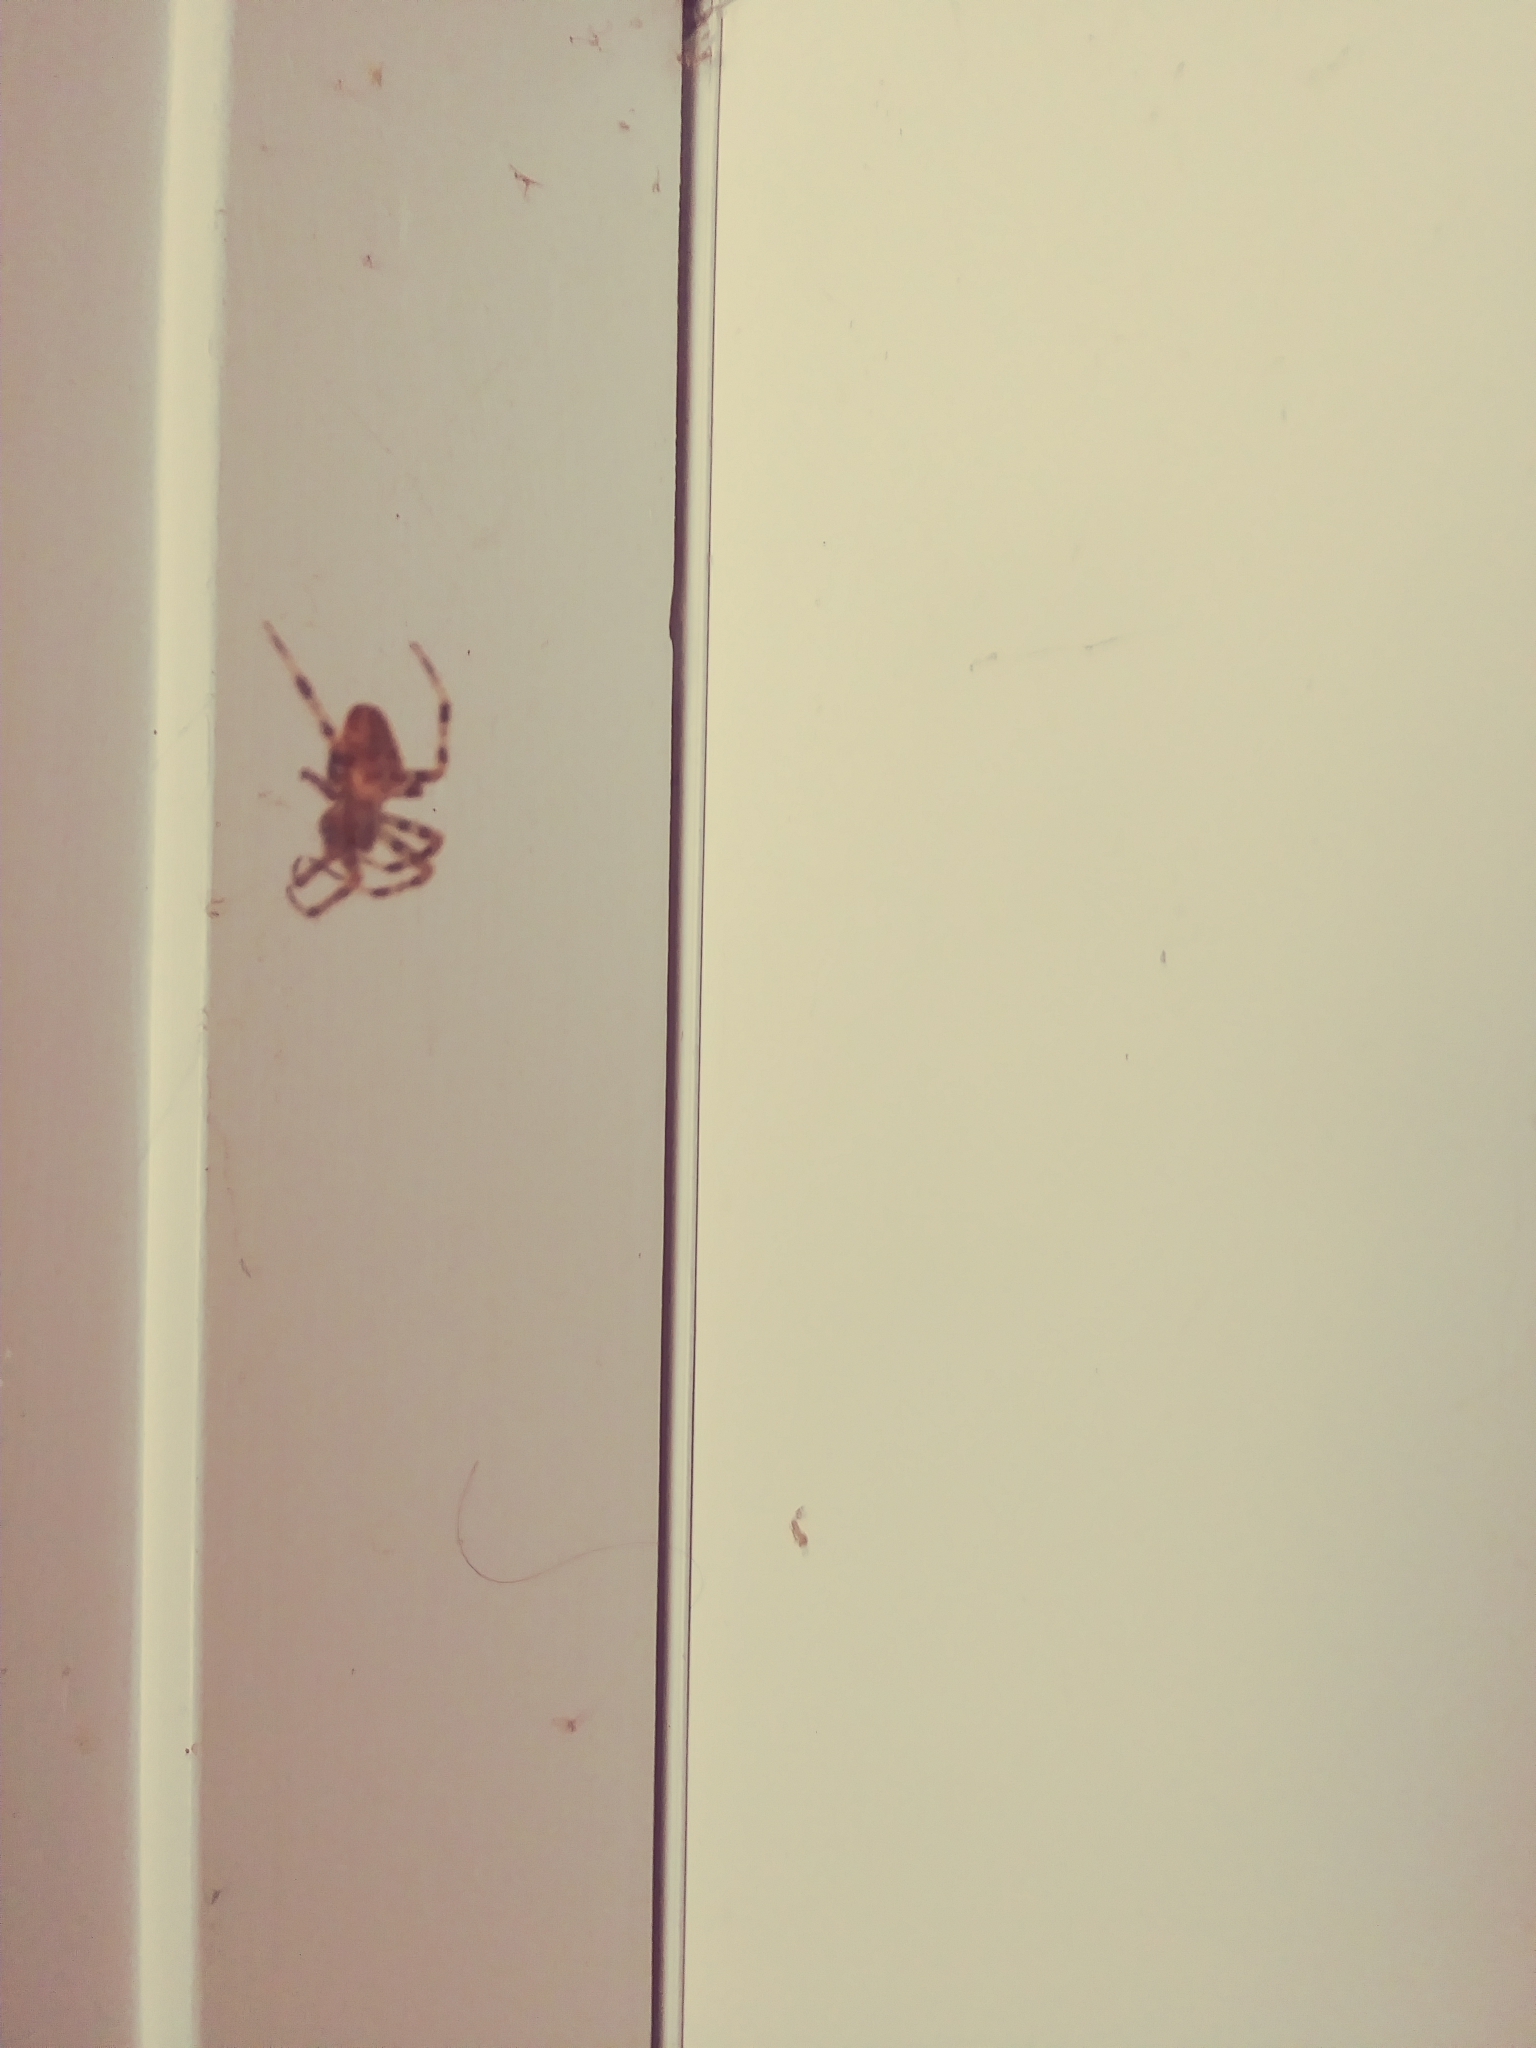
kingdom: Animalia
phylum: Arthropoda
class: Arachnida
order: Araneae
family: Araneidae
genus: Araneus
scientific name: Araneus diadematus
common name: Cross orbweaver
